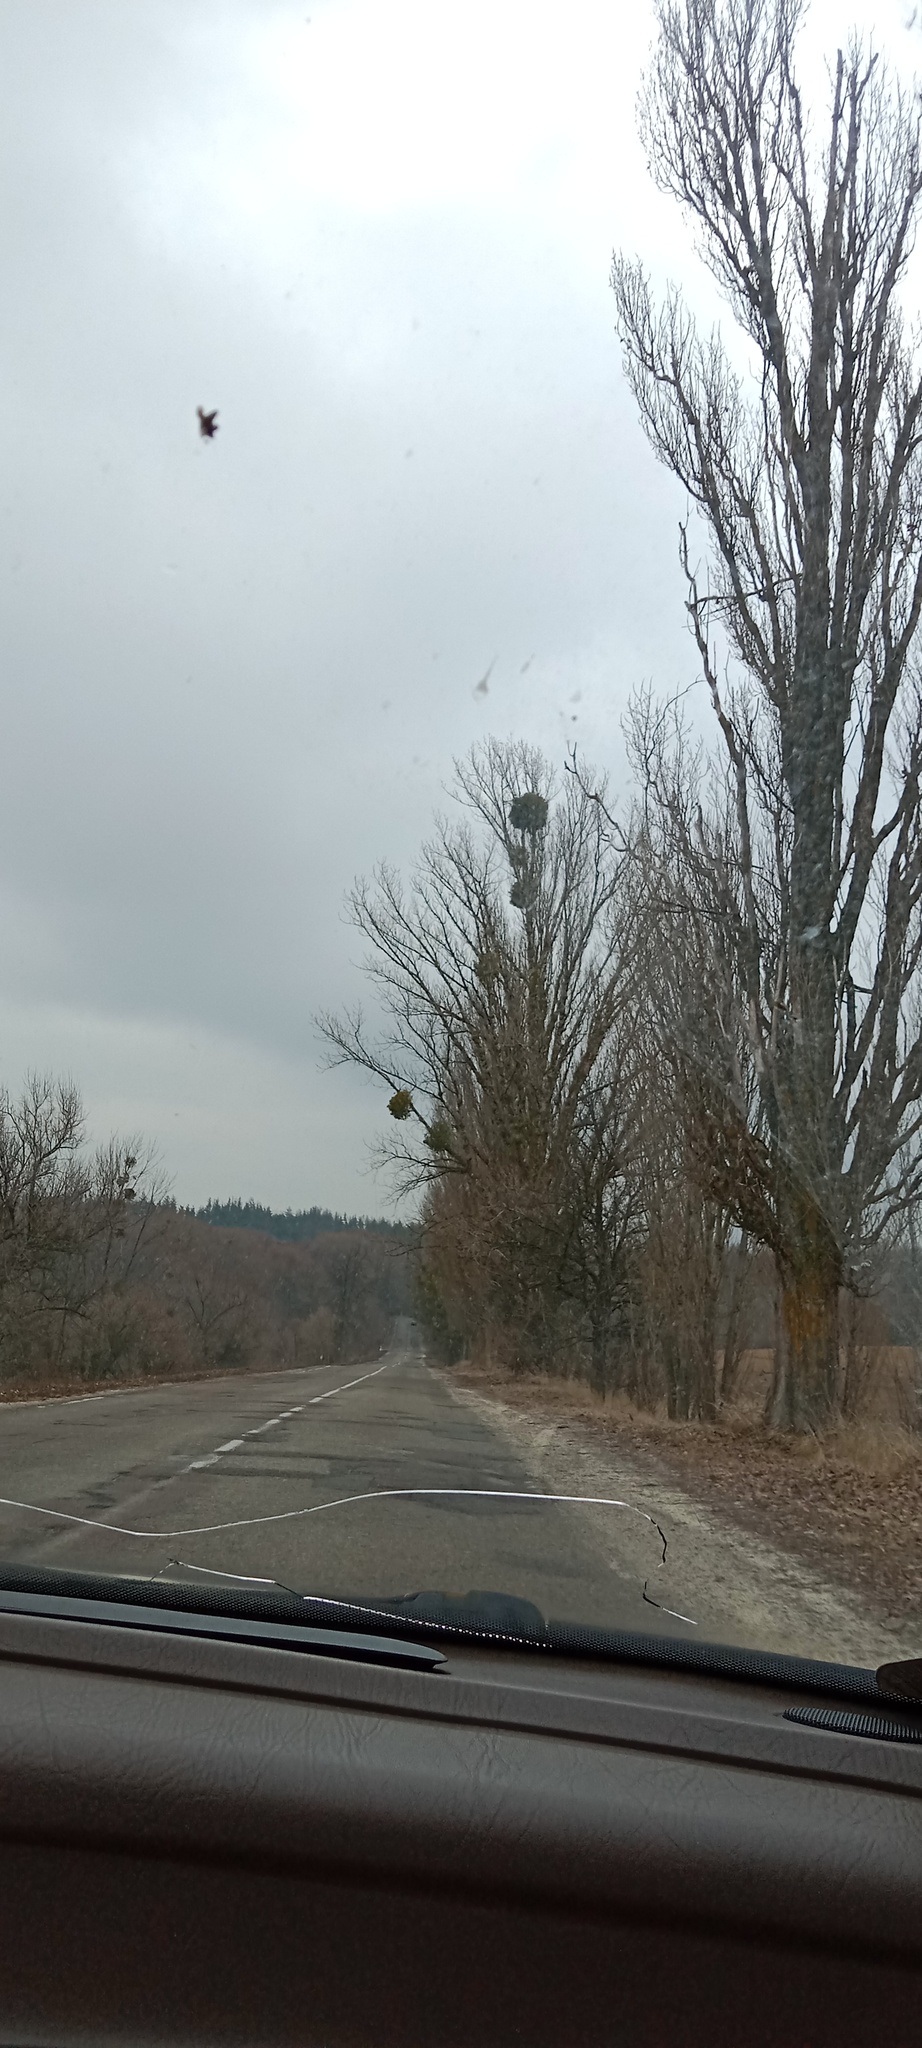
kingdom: Plantae
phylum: Tracheophyta
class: Magnoliopsida
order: Santalales
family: Viscaceae
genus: Viscum
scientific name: Viscum album
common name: Mistletoe
